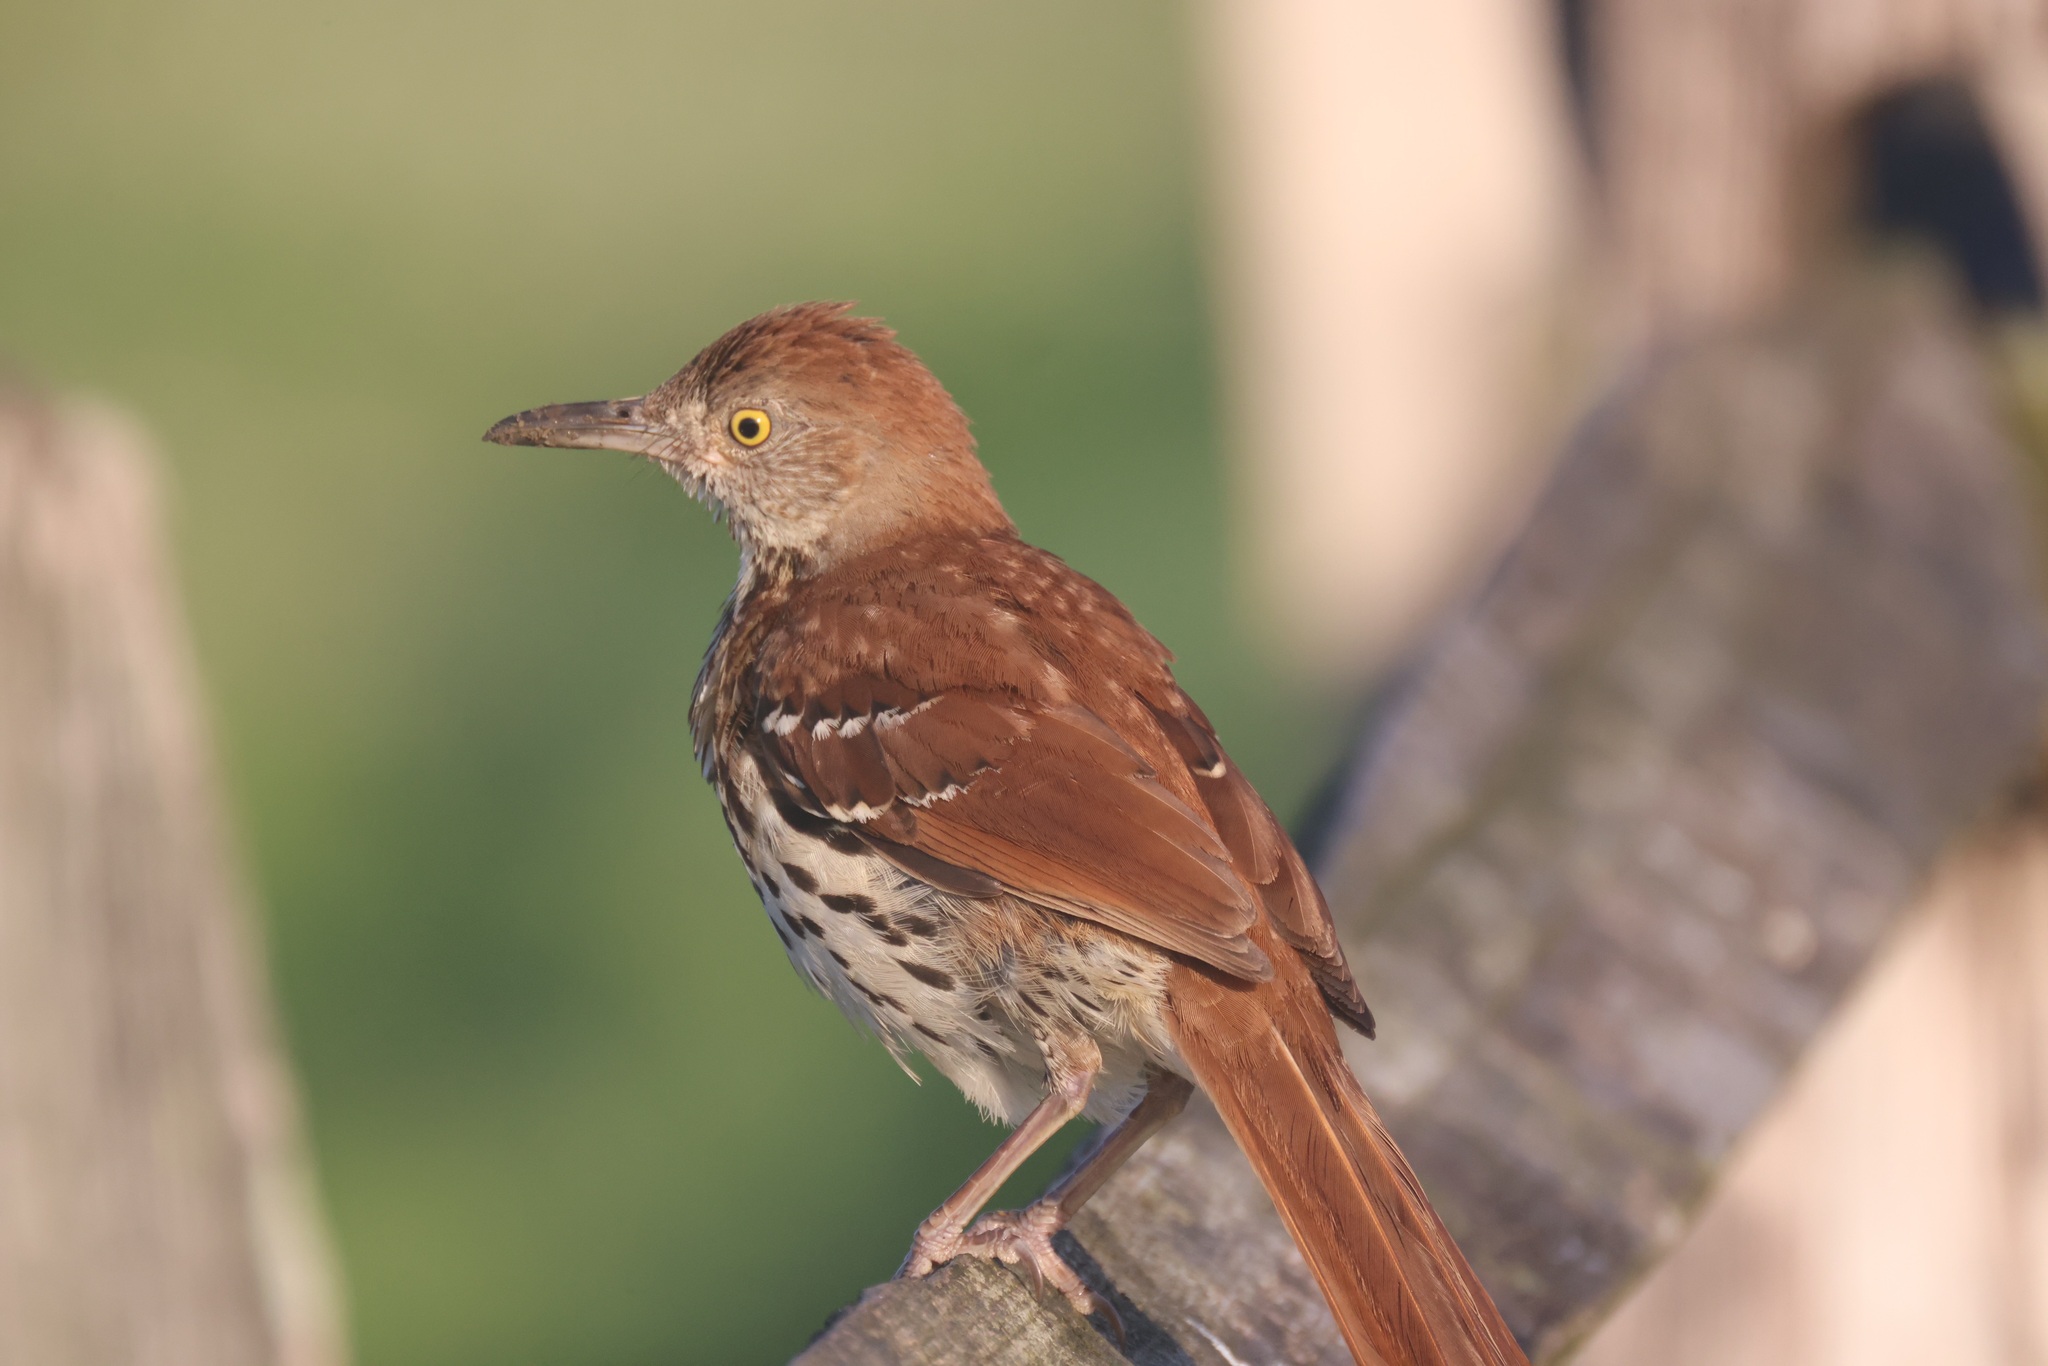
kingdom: Animalia
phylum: Chordata
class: Aves
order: Passeriformes
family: Mimidae
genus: Toxostoma
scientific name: Toxostoma rufum
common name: Brown thrasher
